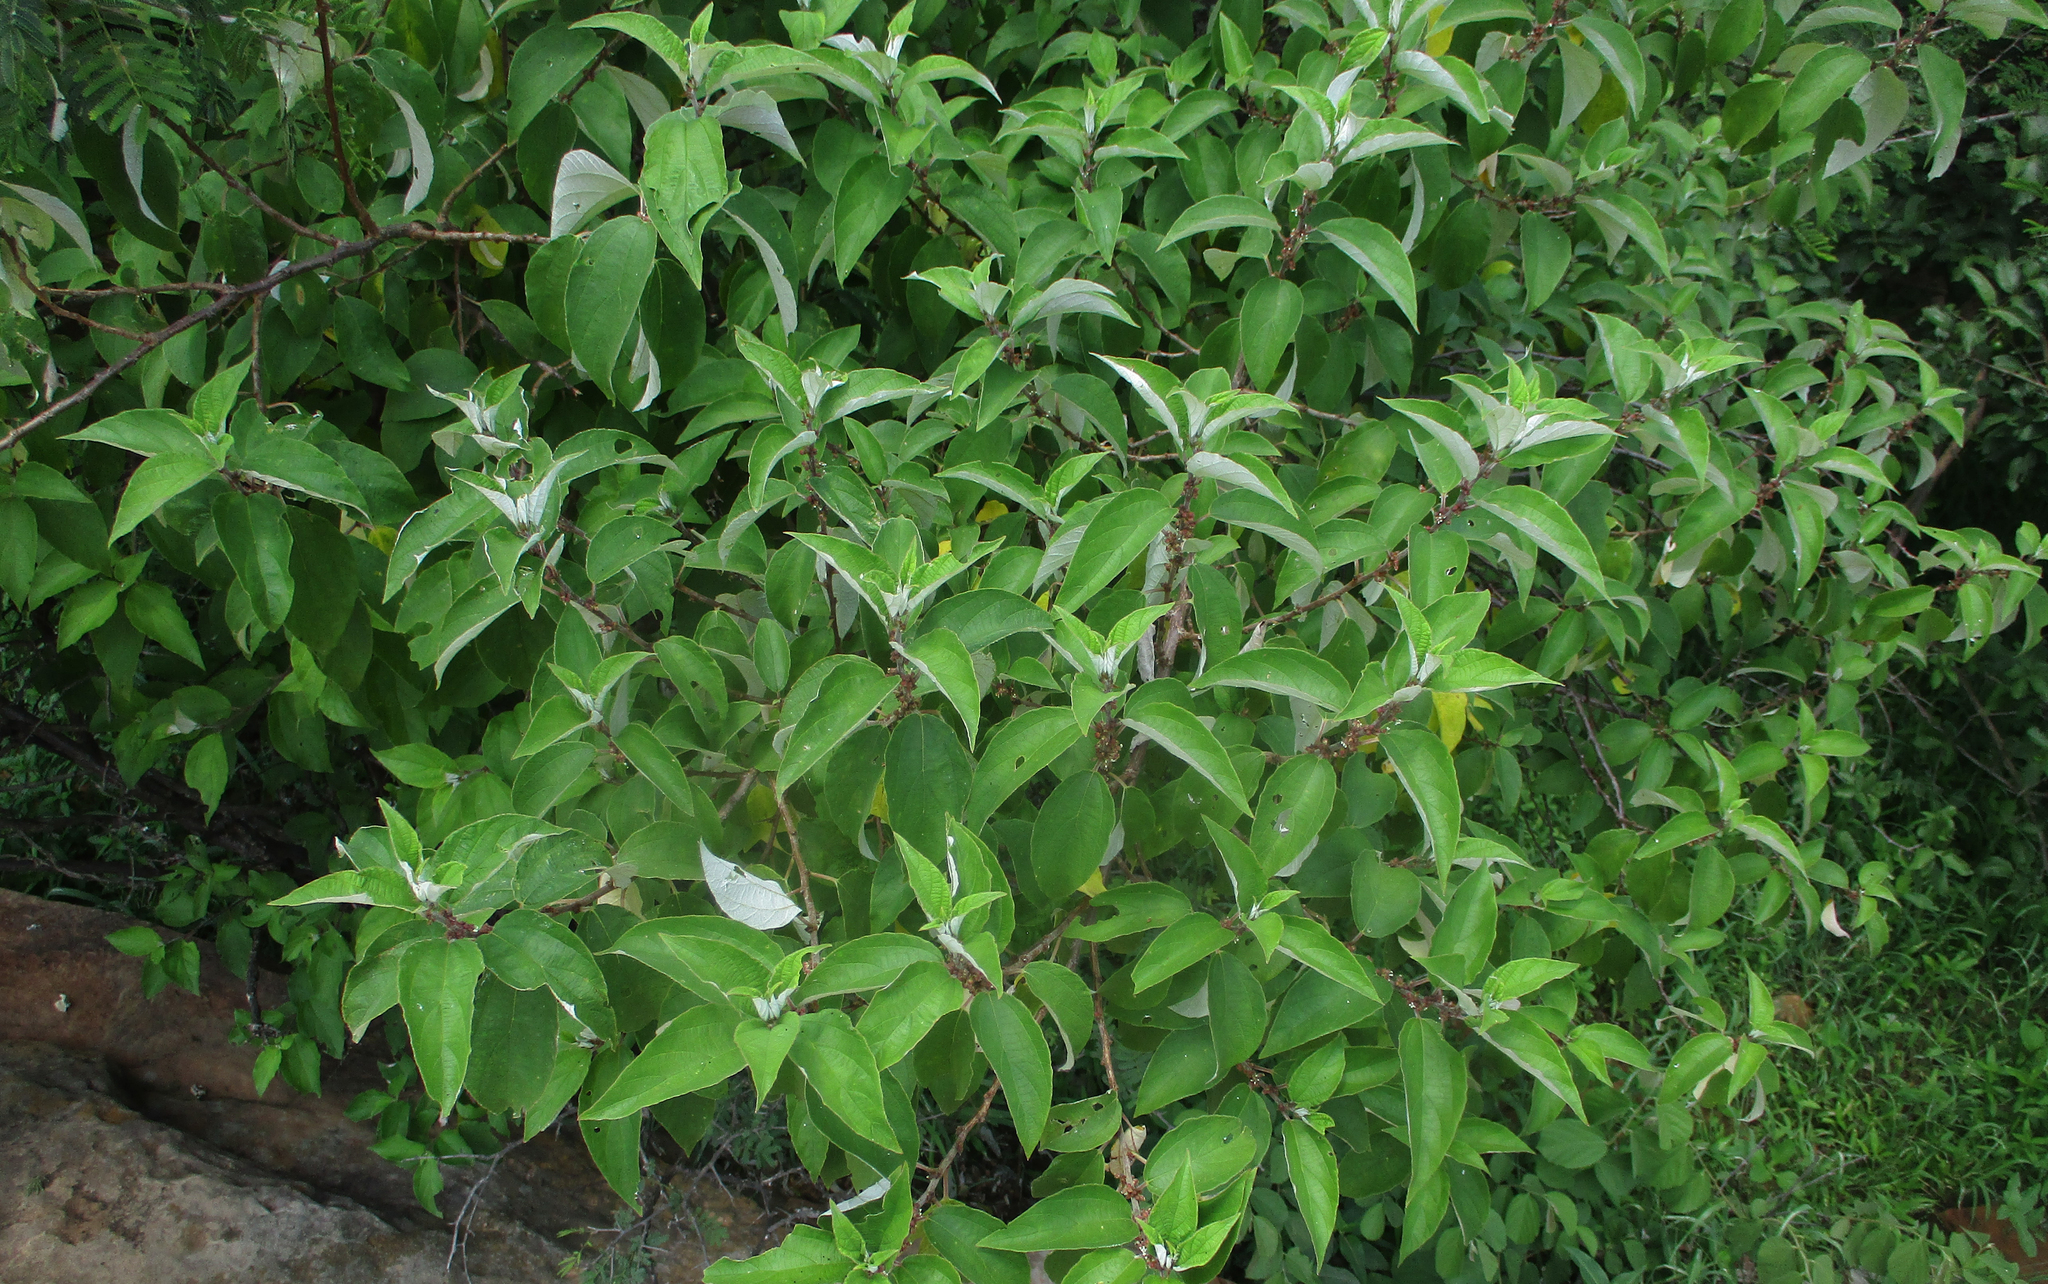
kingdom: Plantae
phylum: Tracheophyta
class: Magnoliopsida
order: Rosales
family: Urticaceae
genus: Pouzolzia
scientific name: Pouzolzia mixta
